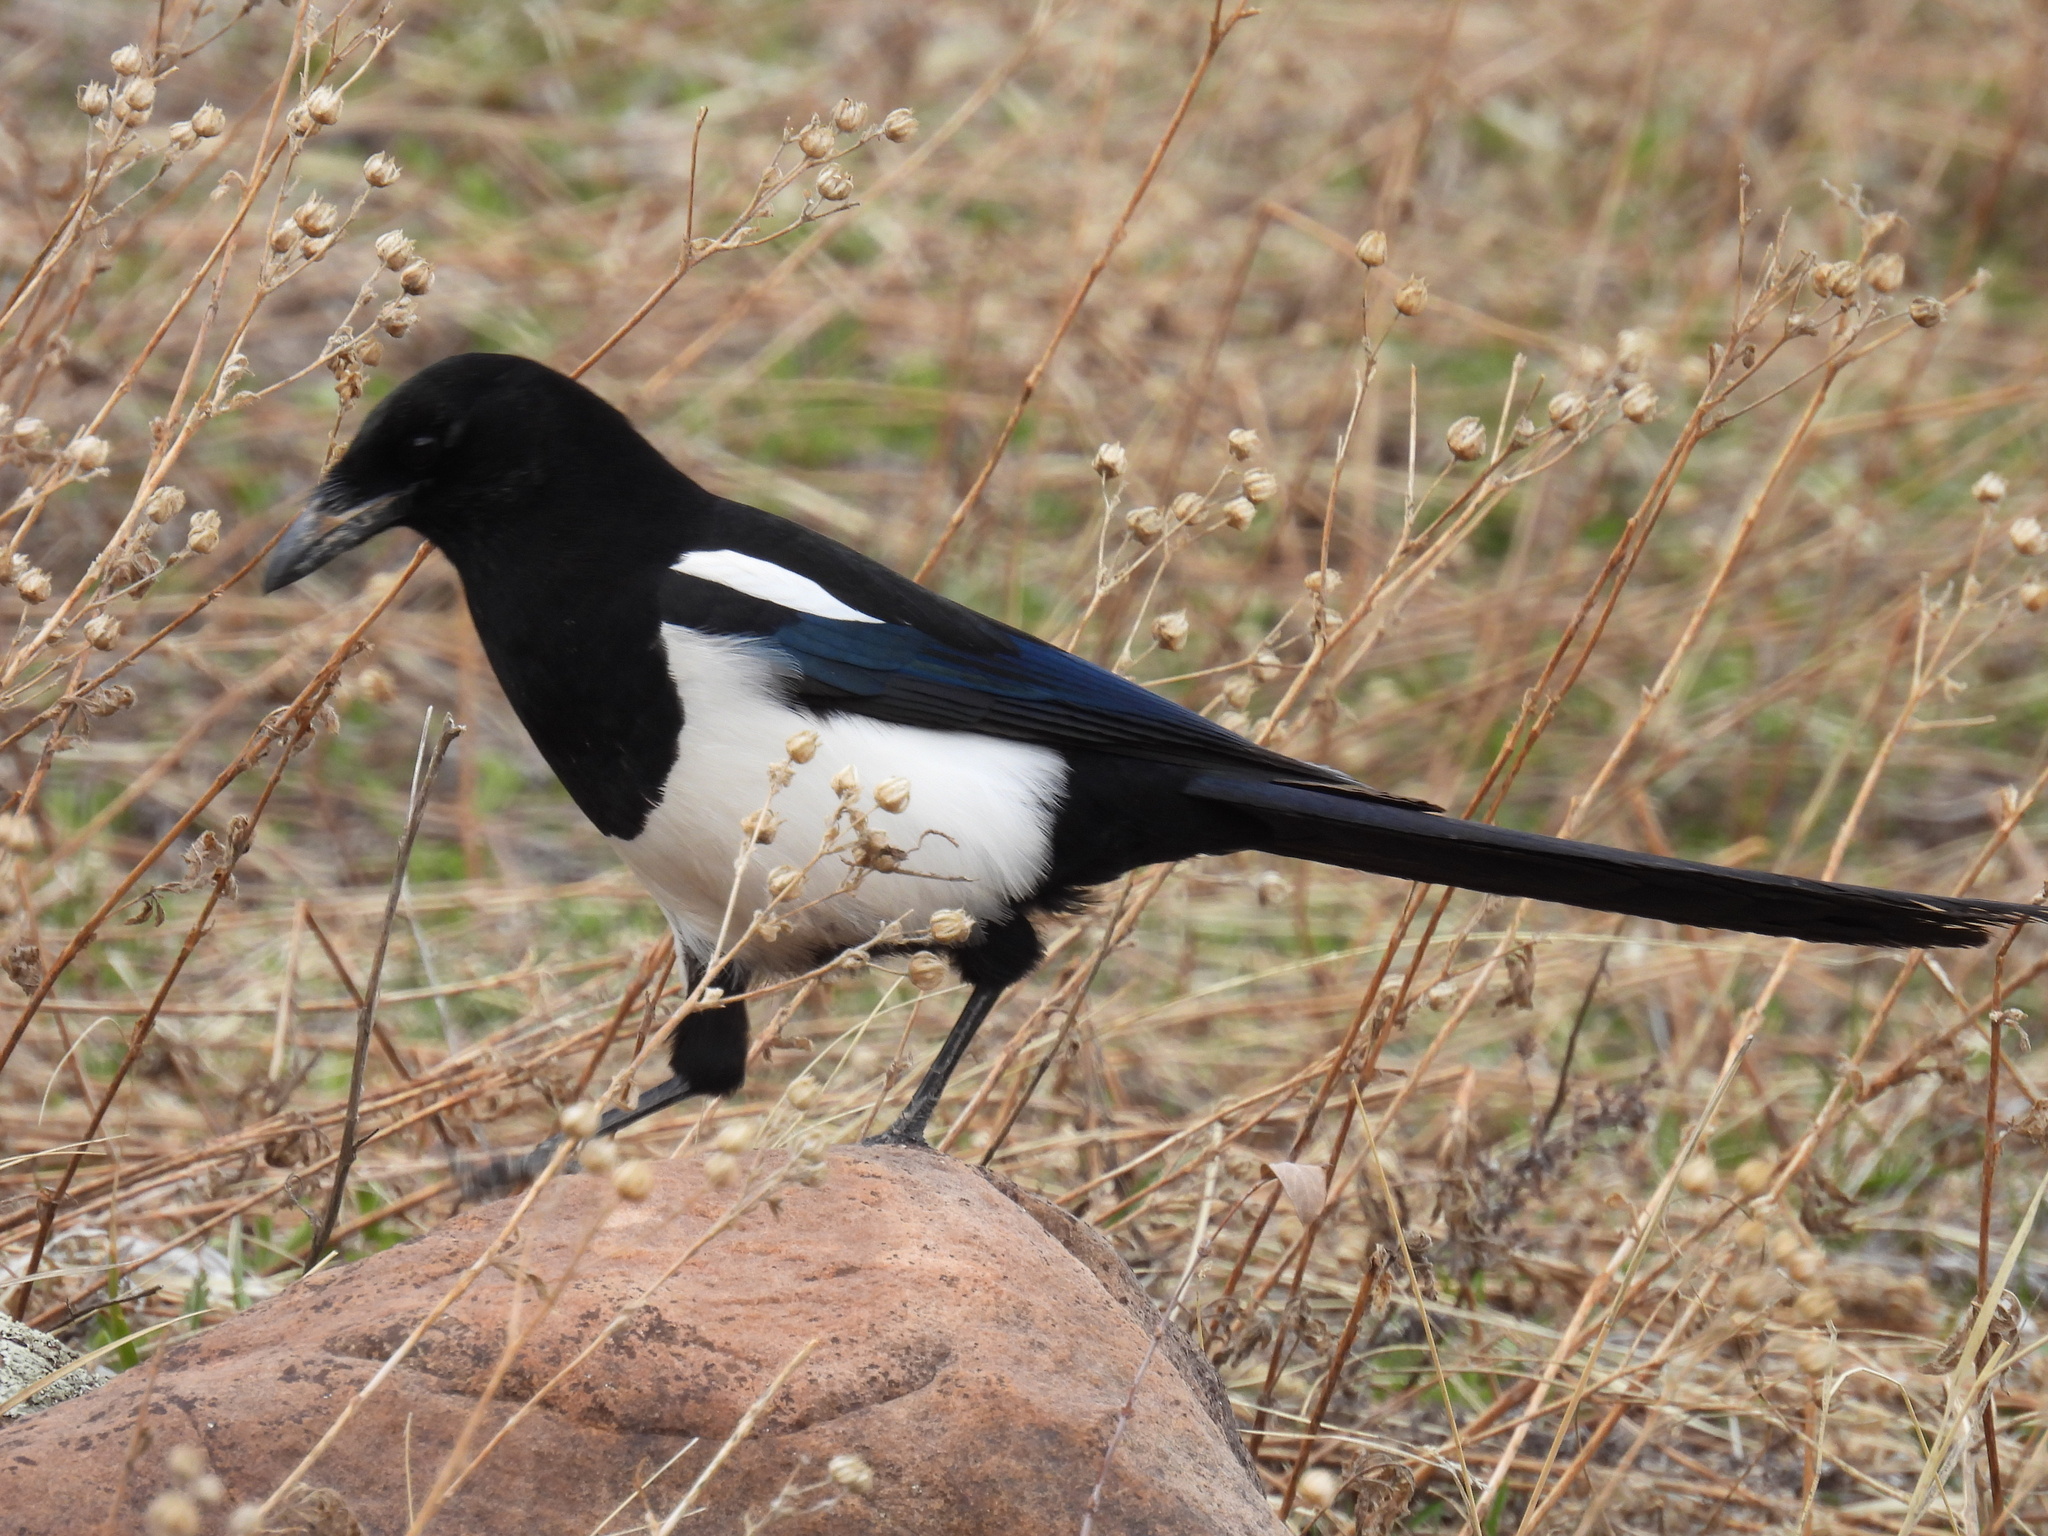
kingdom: Animalia
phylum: Chordata
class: Aves
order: Passeriformes
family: Corvidae
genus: Pica
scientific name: Pica hudsonia
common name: Black-billed magpie
